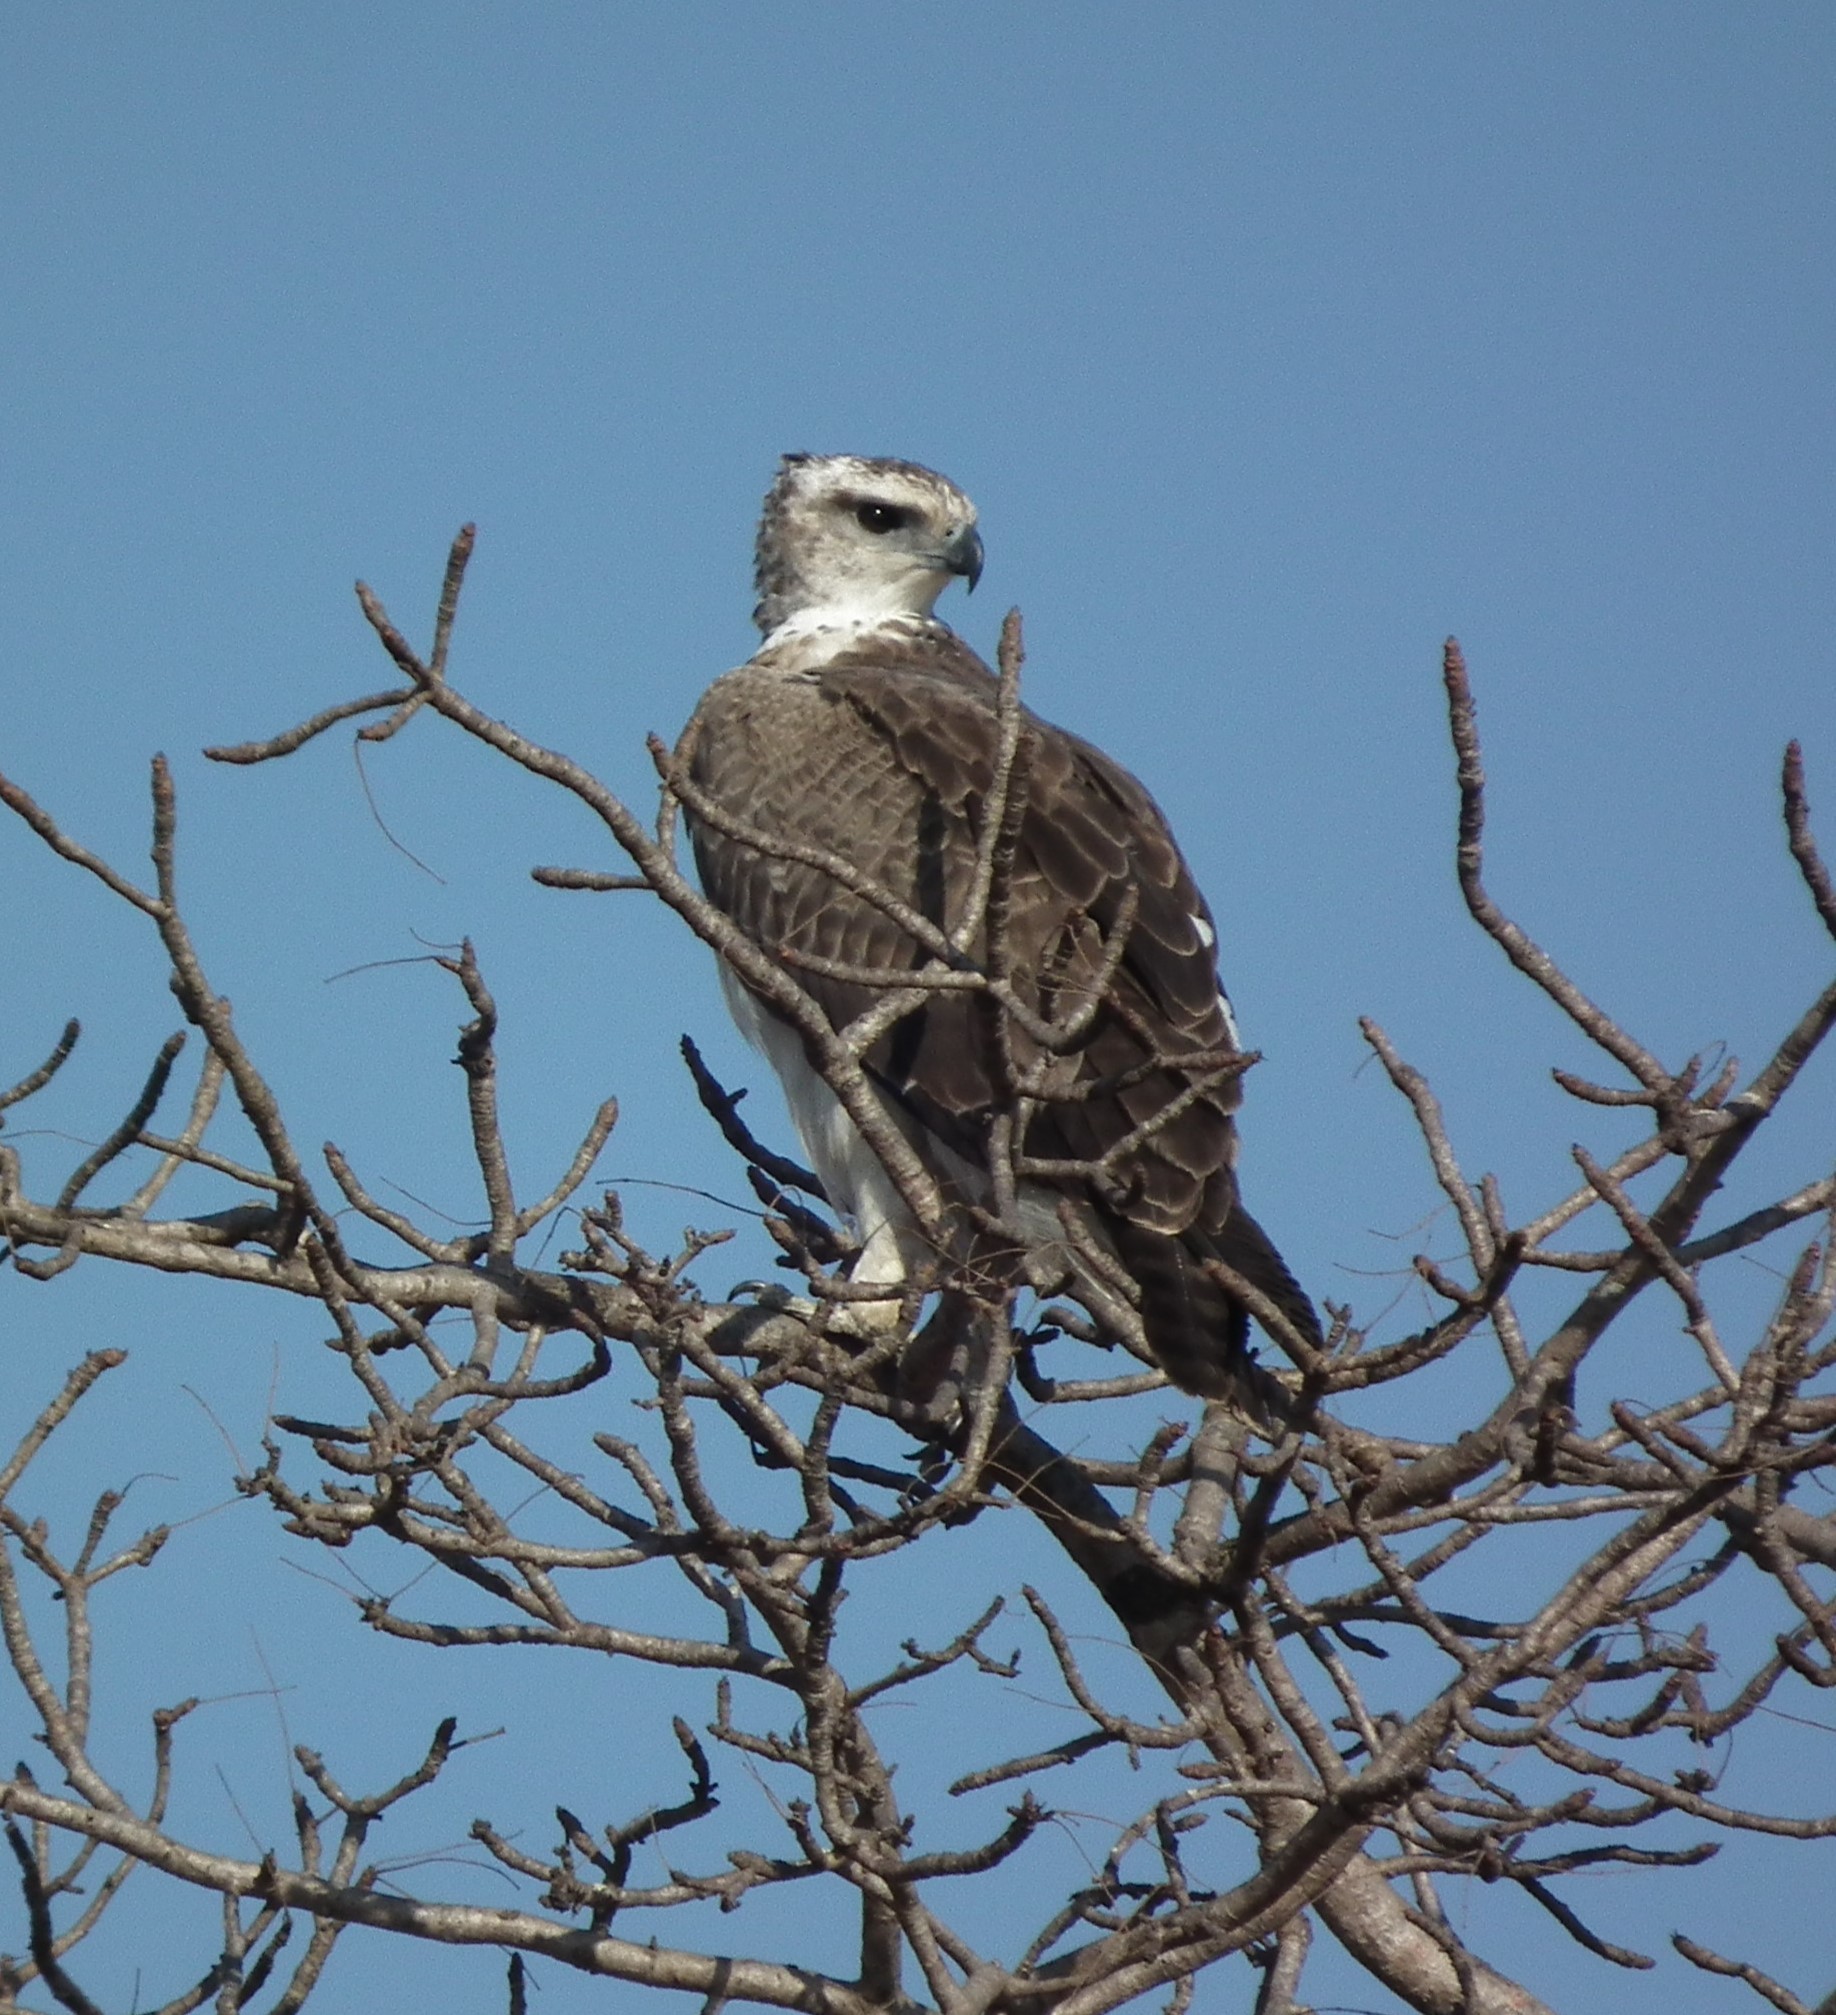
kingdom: Animalia
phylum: Chordata
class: Aves
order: Accipitriformes
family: Accipitridae
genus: Polemaetus
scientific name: Polemaetus bellicosus
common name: Martial eagle
